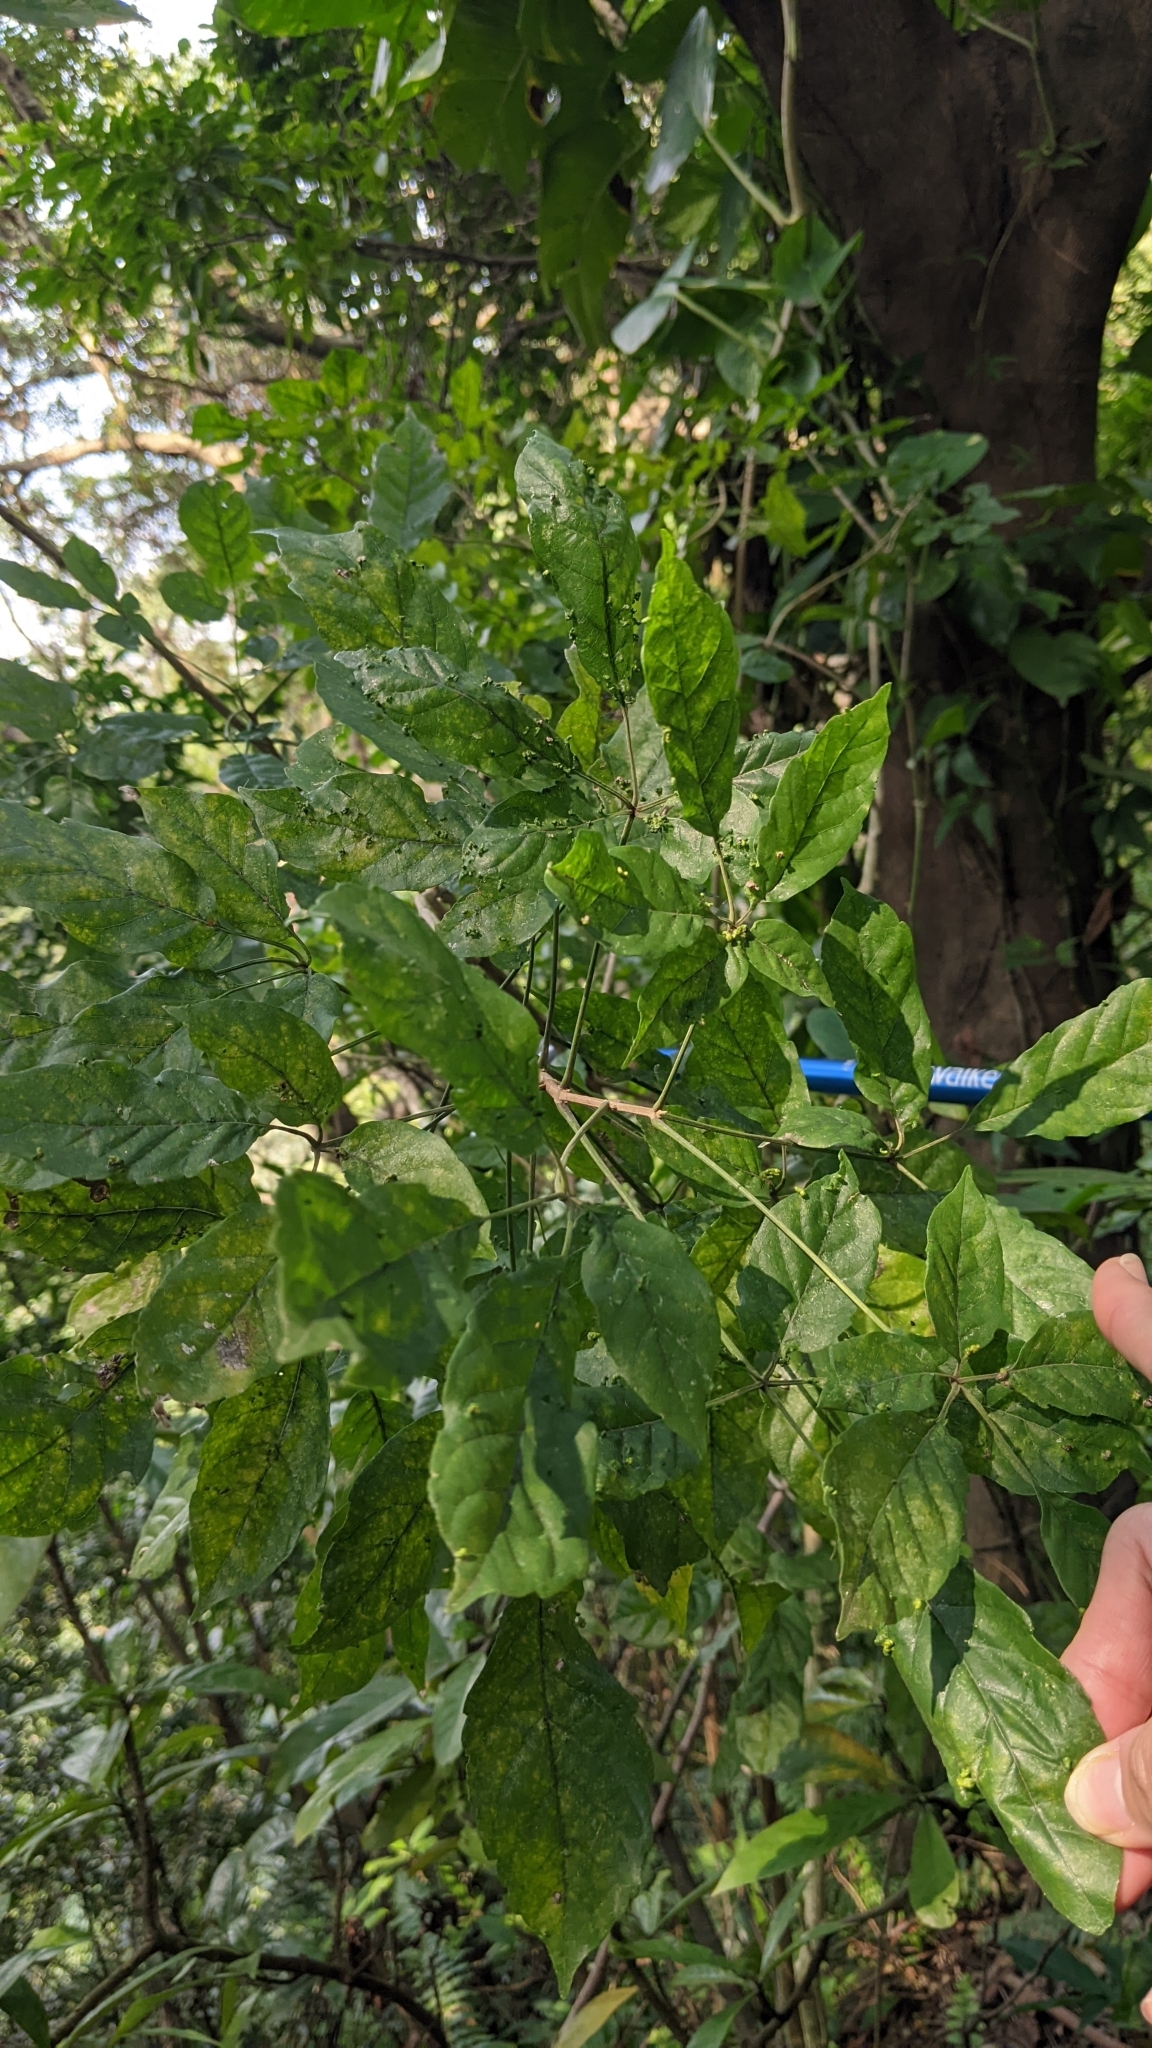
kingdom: Plantae
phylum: Tracheophyta
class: Magnoliopsida
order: Lamiales
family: Lamiaceae
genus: Vitex
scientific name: Vitex quinata
